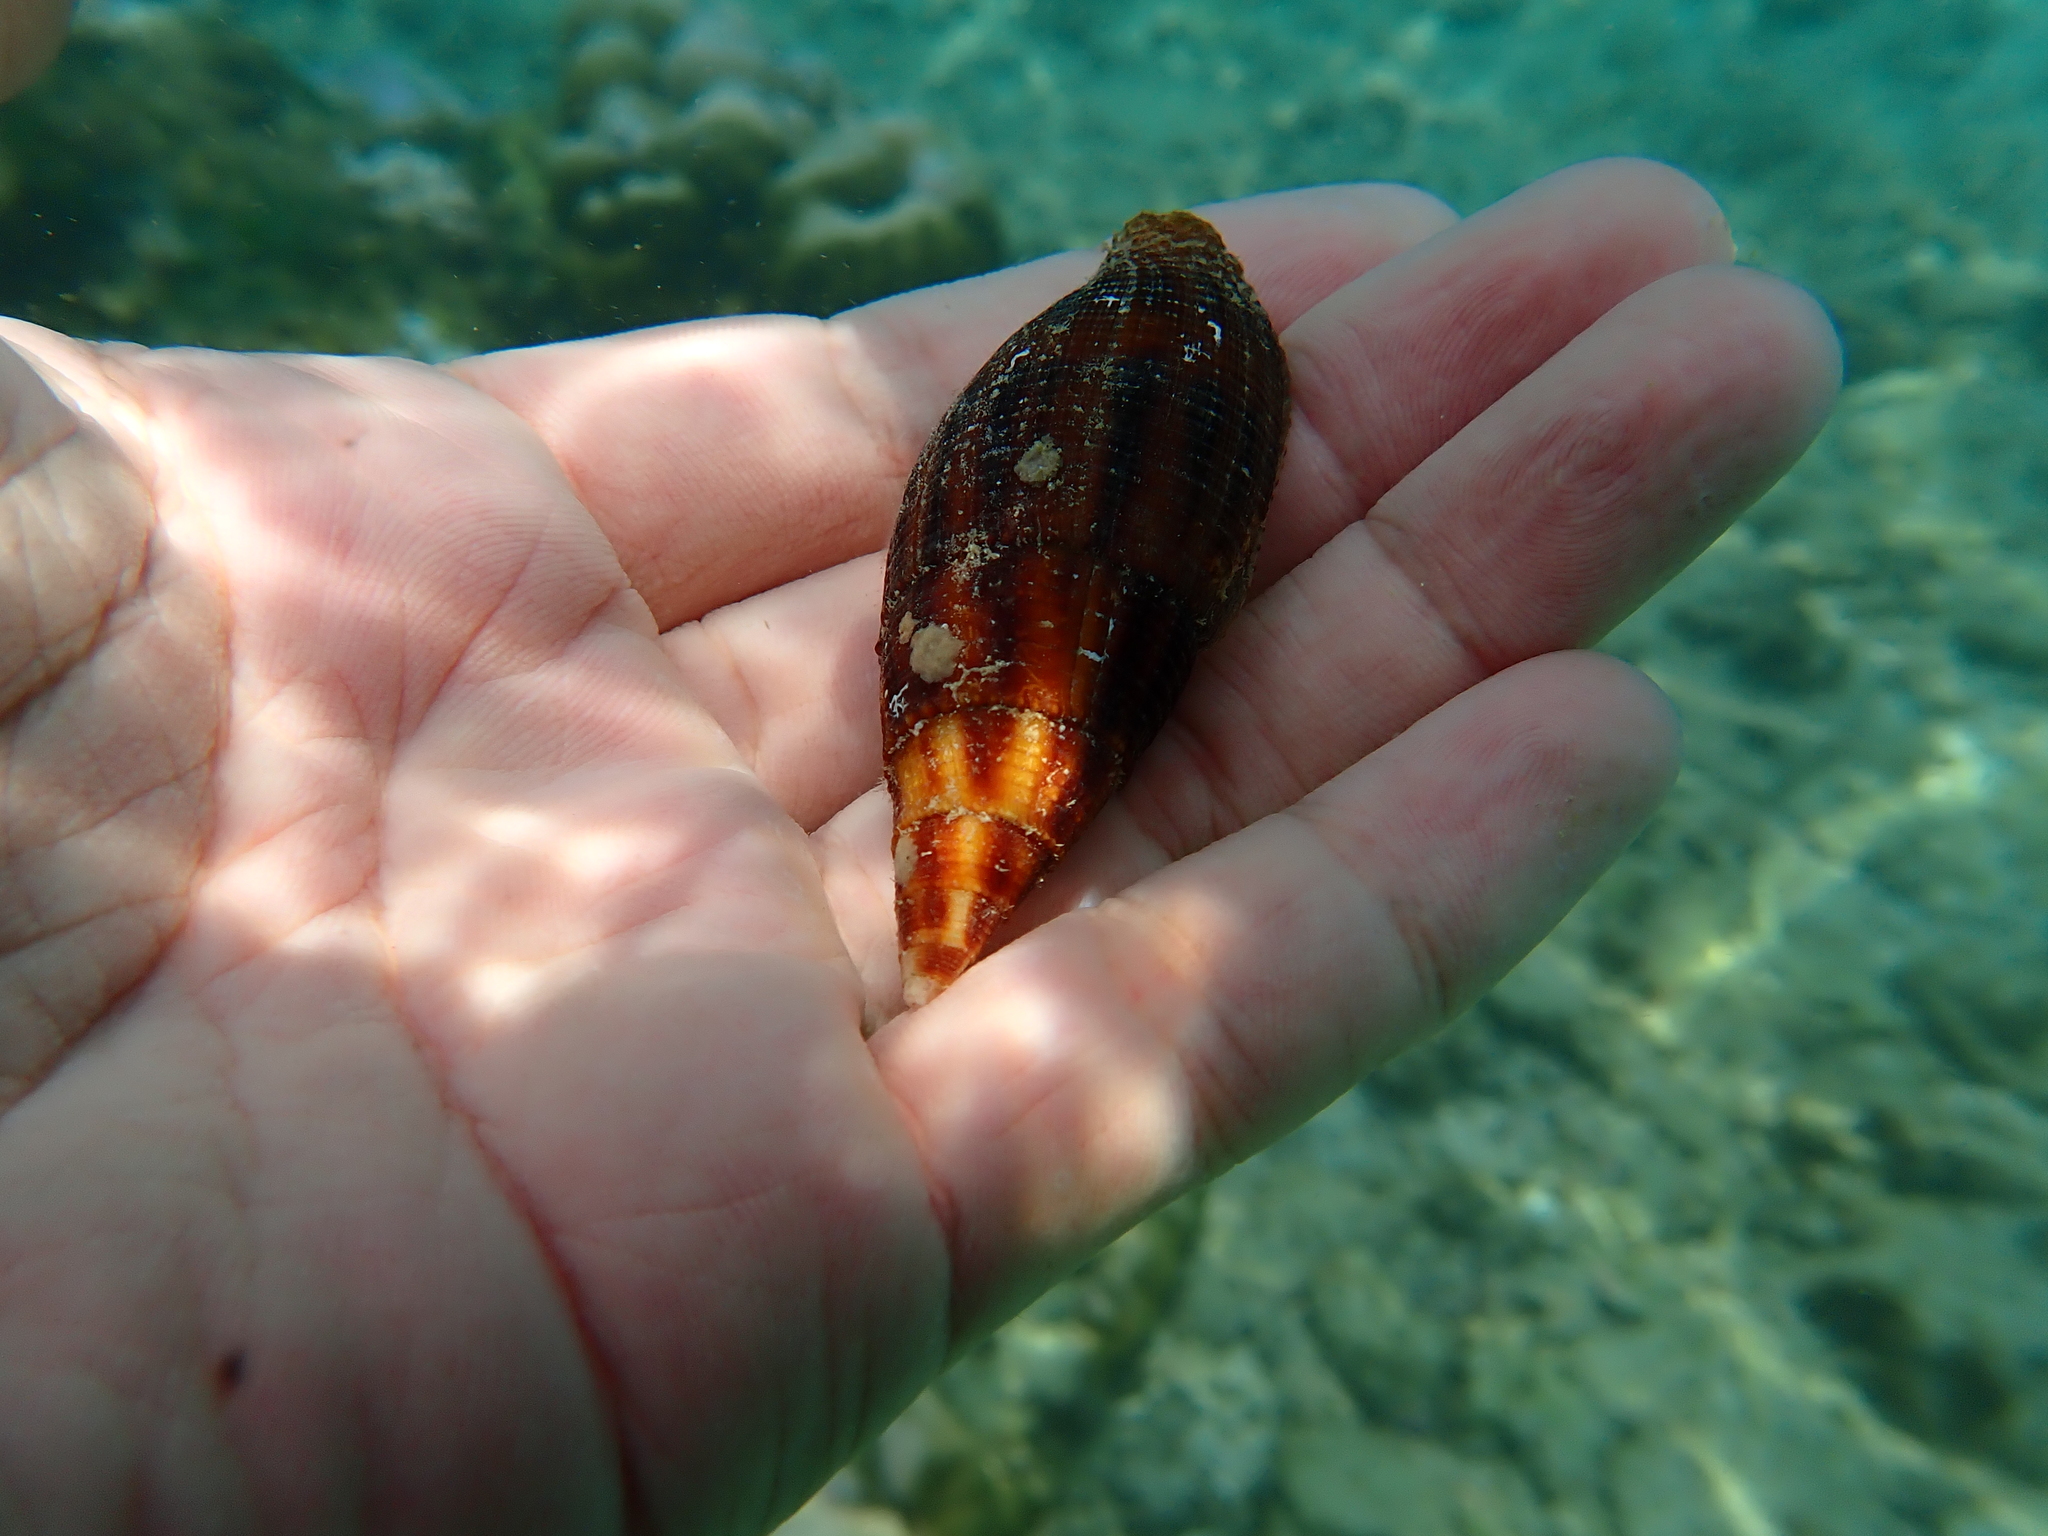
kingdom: Animalia
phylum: Mollusca
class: Gastropoda
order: Neogastropoda
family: Mitridae
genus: Nebularia
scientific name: Nebularia eremitarum
